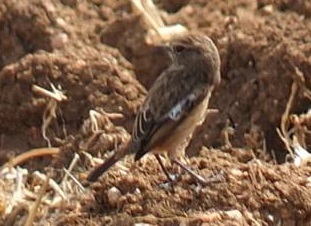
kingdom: Animalia
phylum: Chordata
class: Aves
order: Passeriformes
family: Muscicapidae
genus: Saxicola
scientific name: Saxicola rubicola
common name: European stonechat
